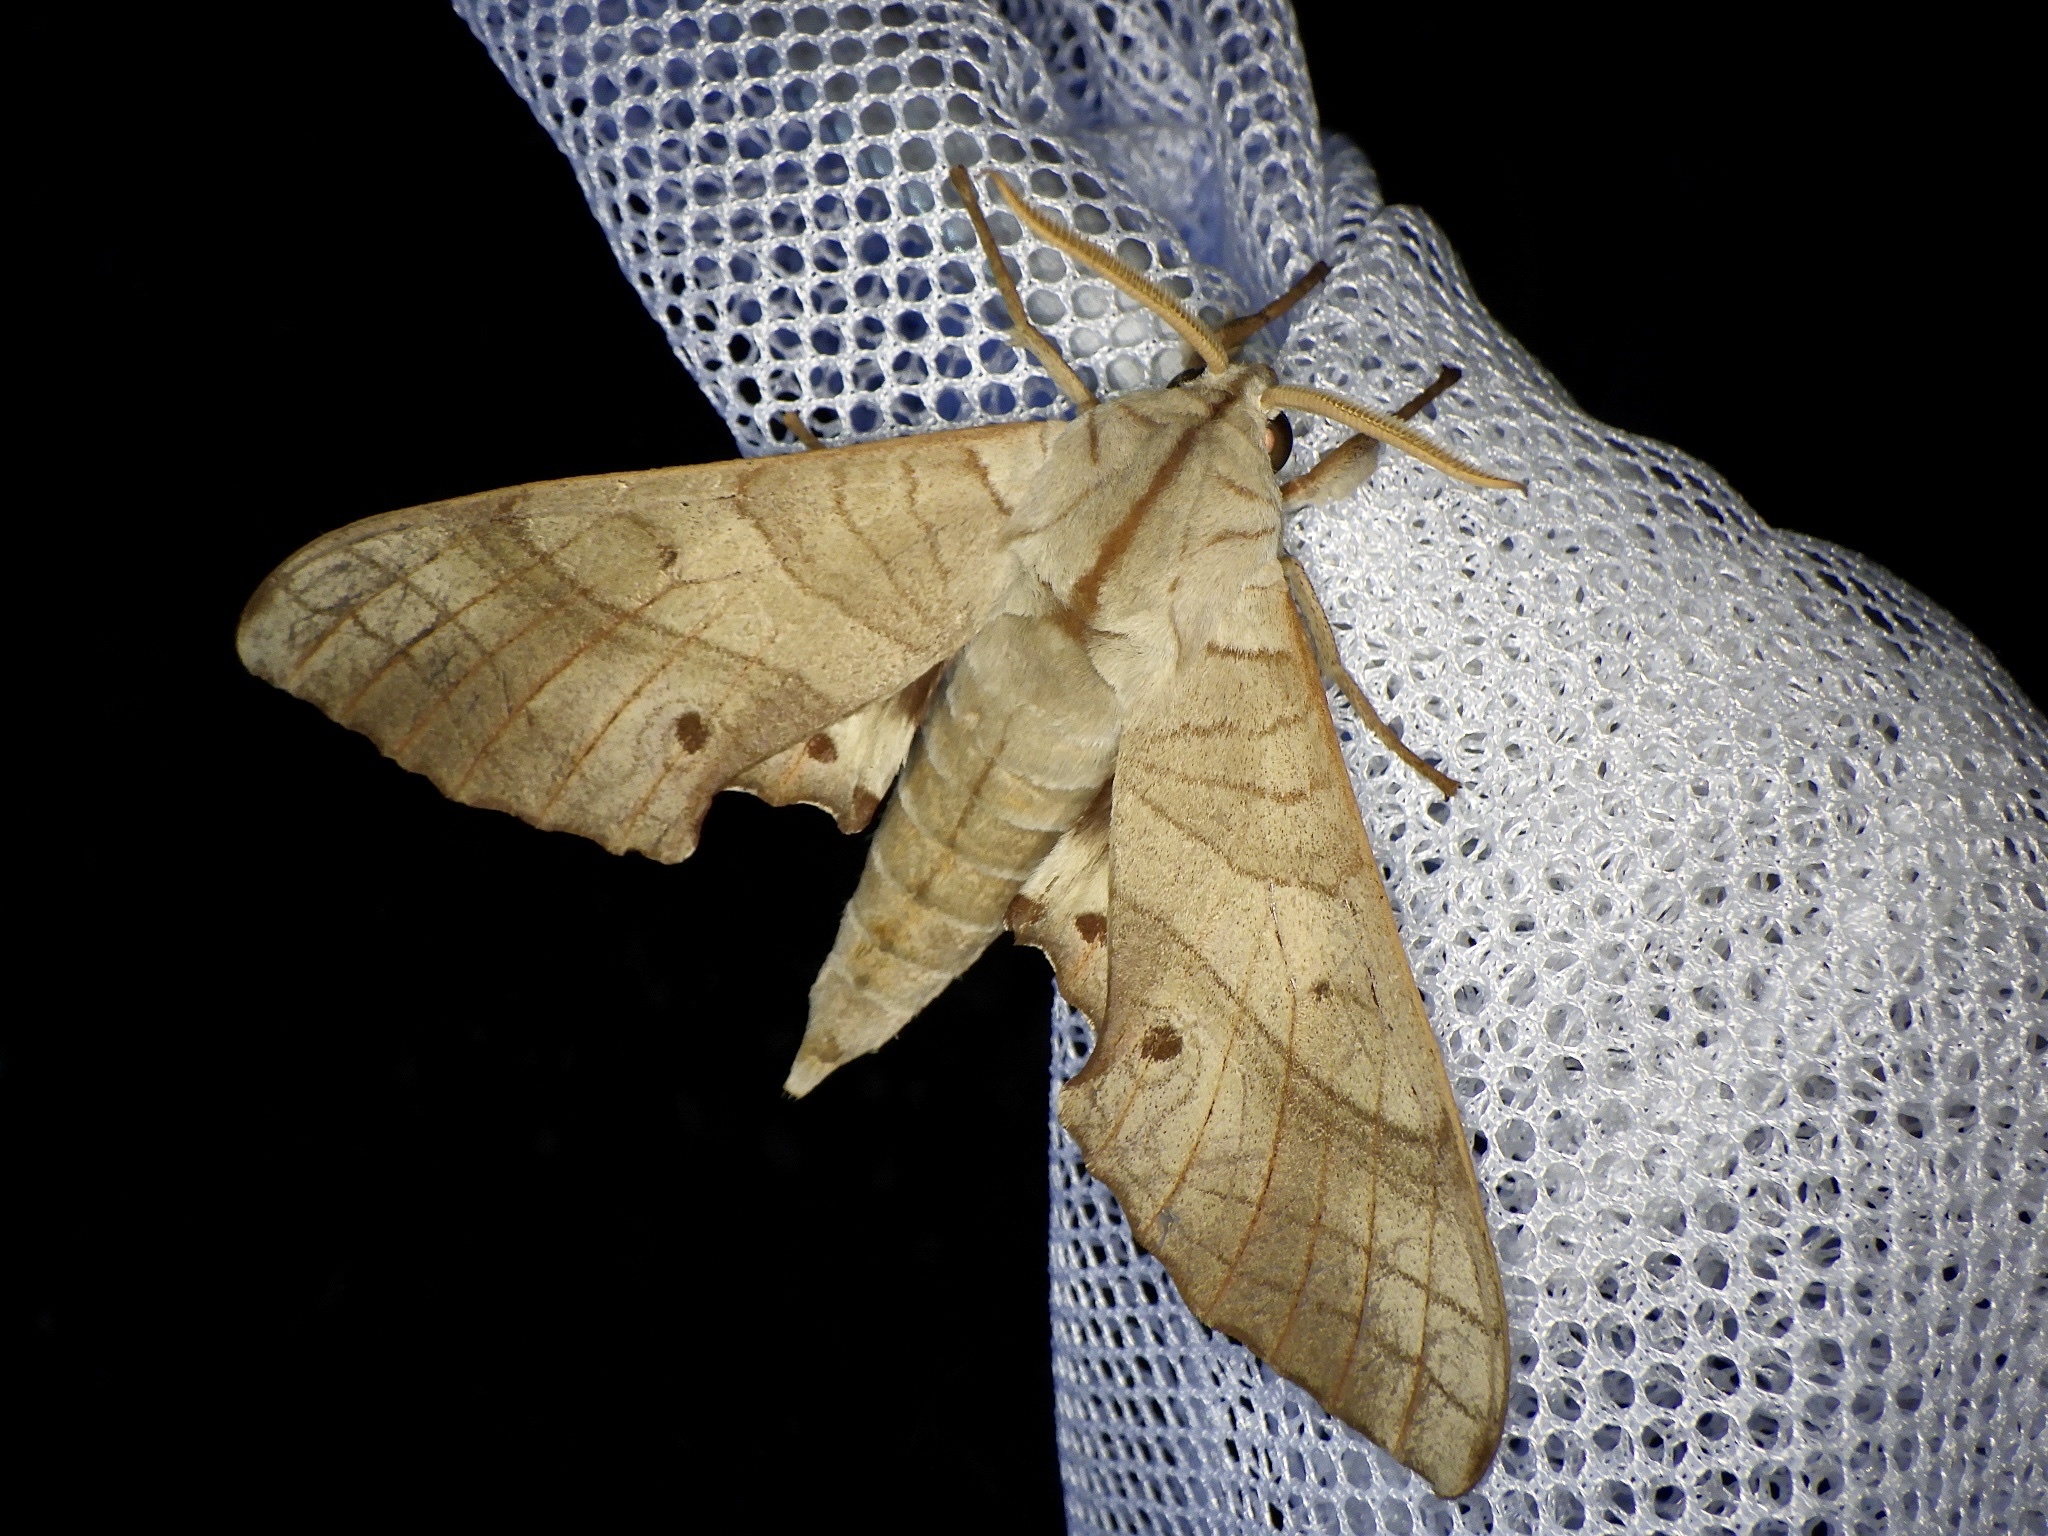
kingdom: Animalia
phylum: Arthropoda
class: Insecta
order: Lepidoptera
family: Sphingidae
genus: Marumba
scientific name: Marumba sperchius
